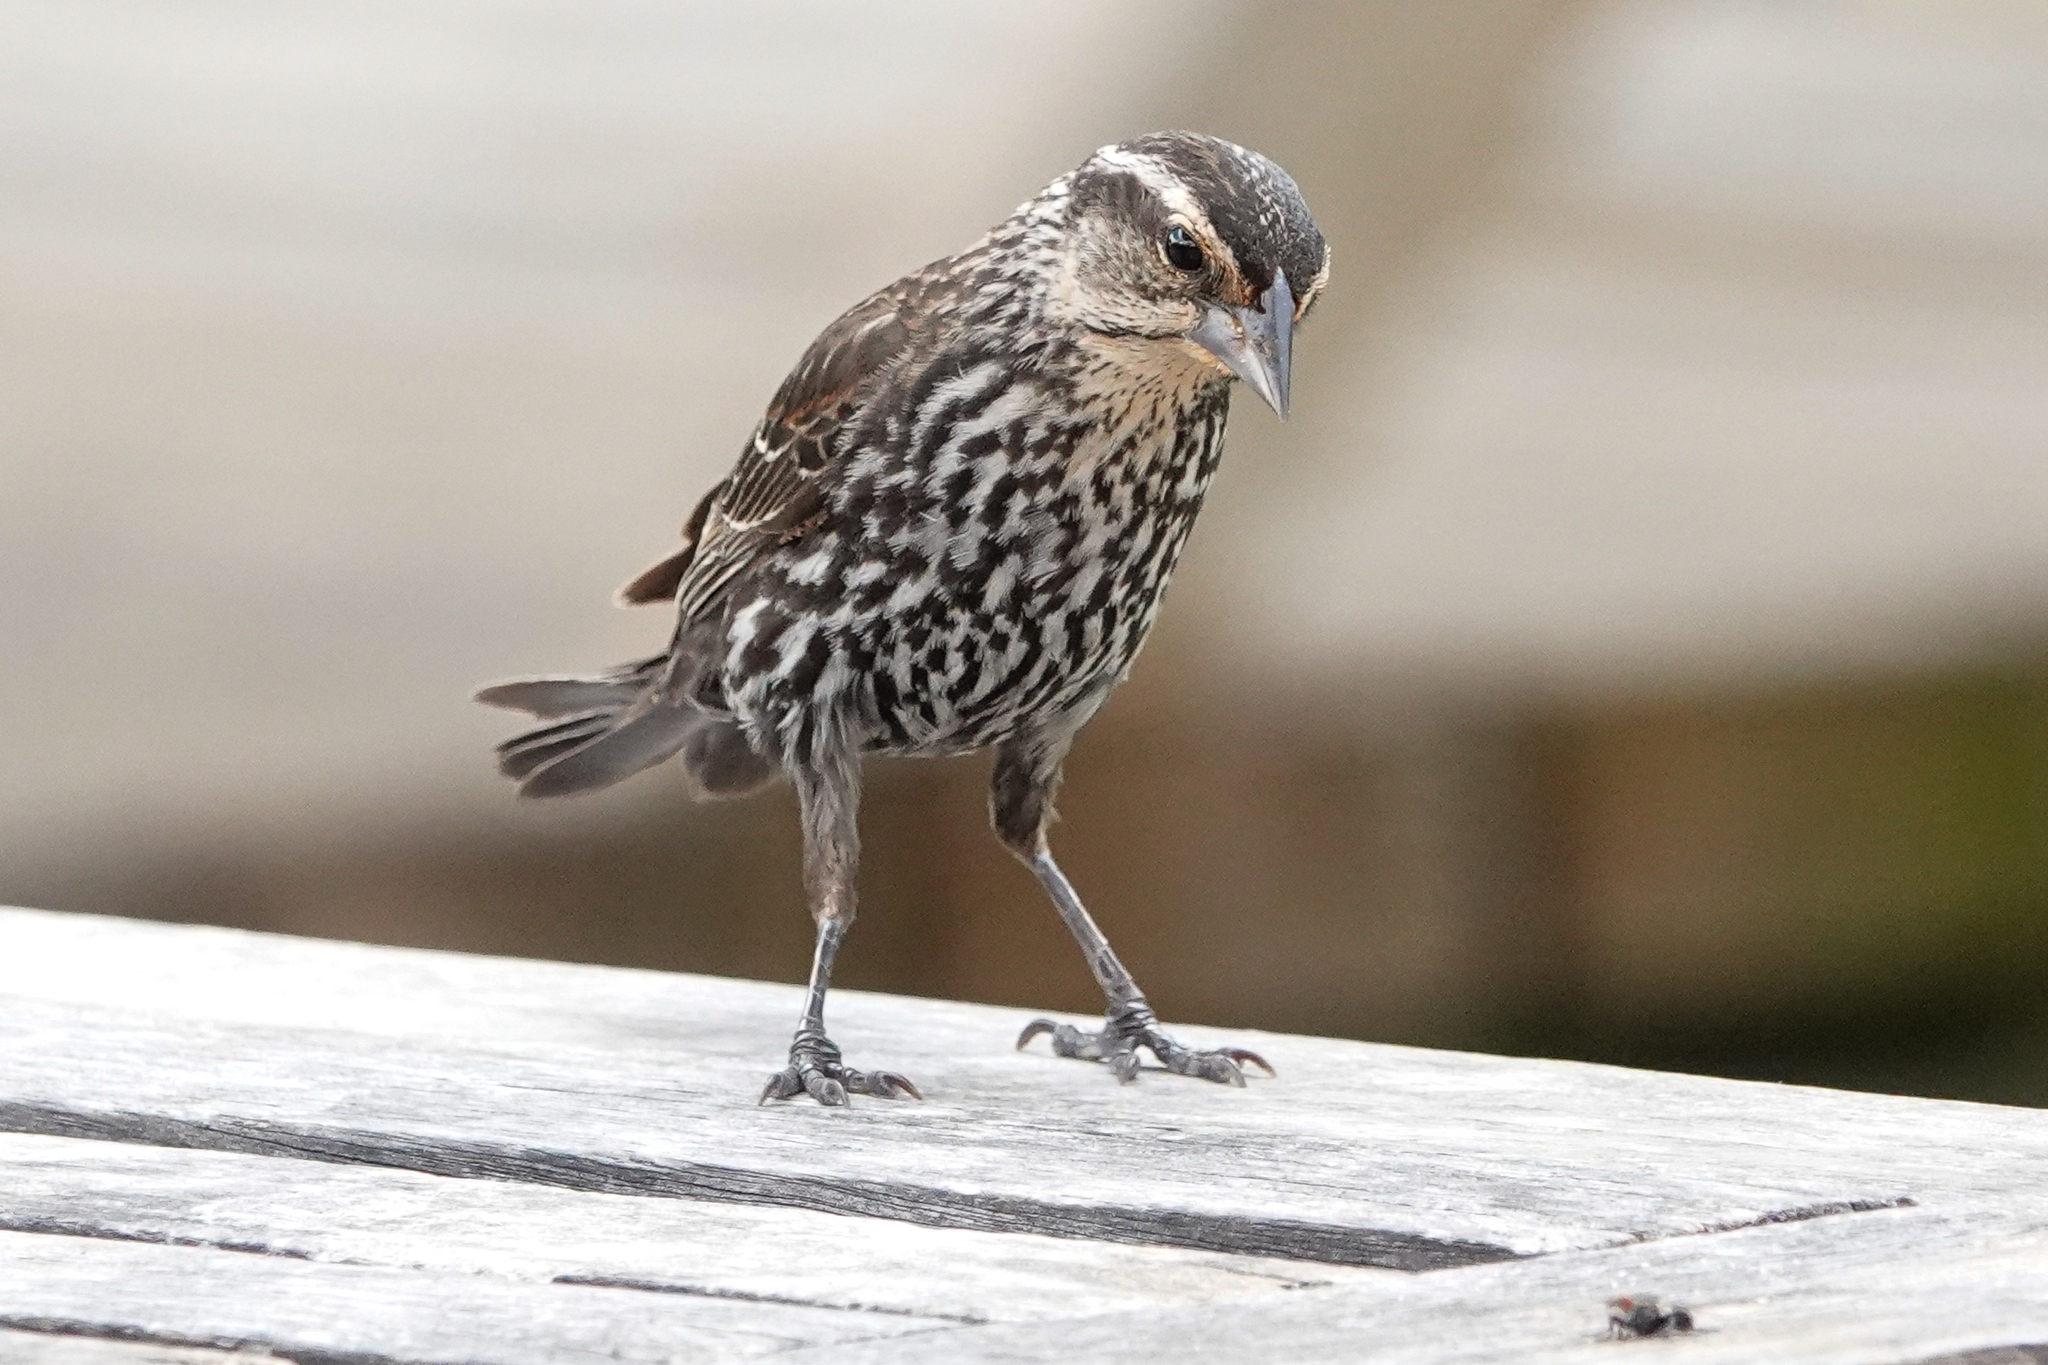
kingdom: Animalia
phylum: Chordata
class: Aves
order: Passeriformes
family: Icteridae
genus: Agelaius
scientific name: Agelaius phoeniceus
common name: Red-winged blackbird
